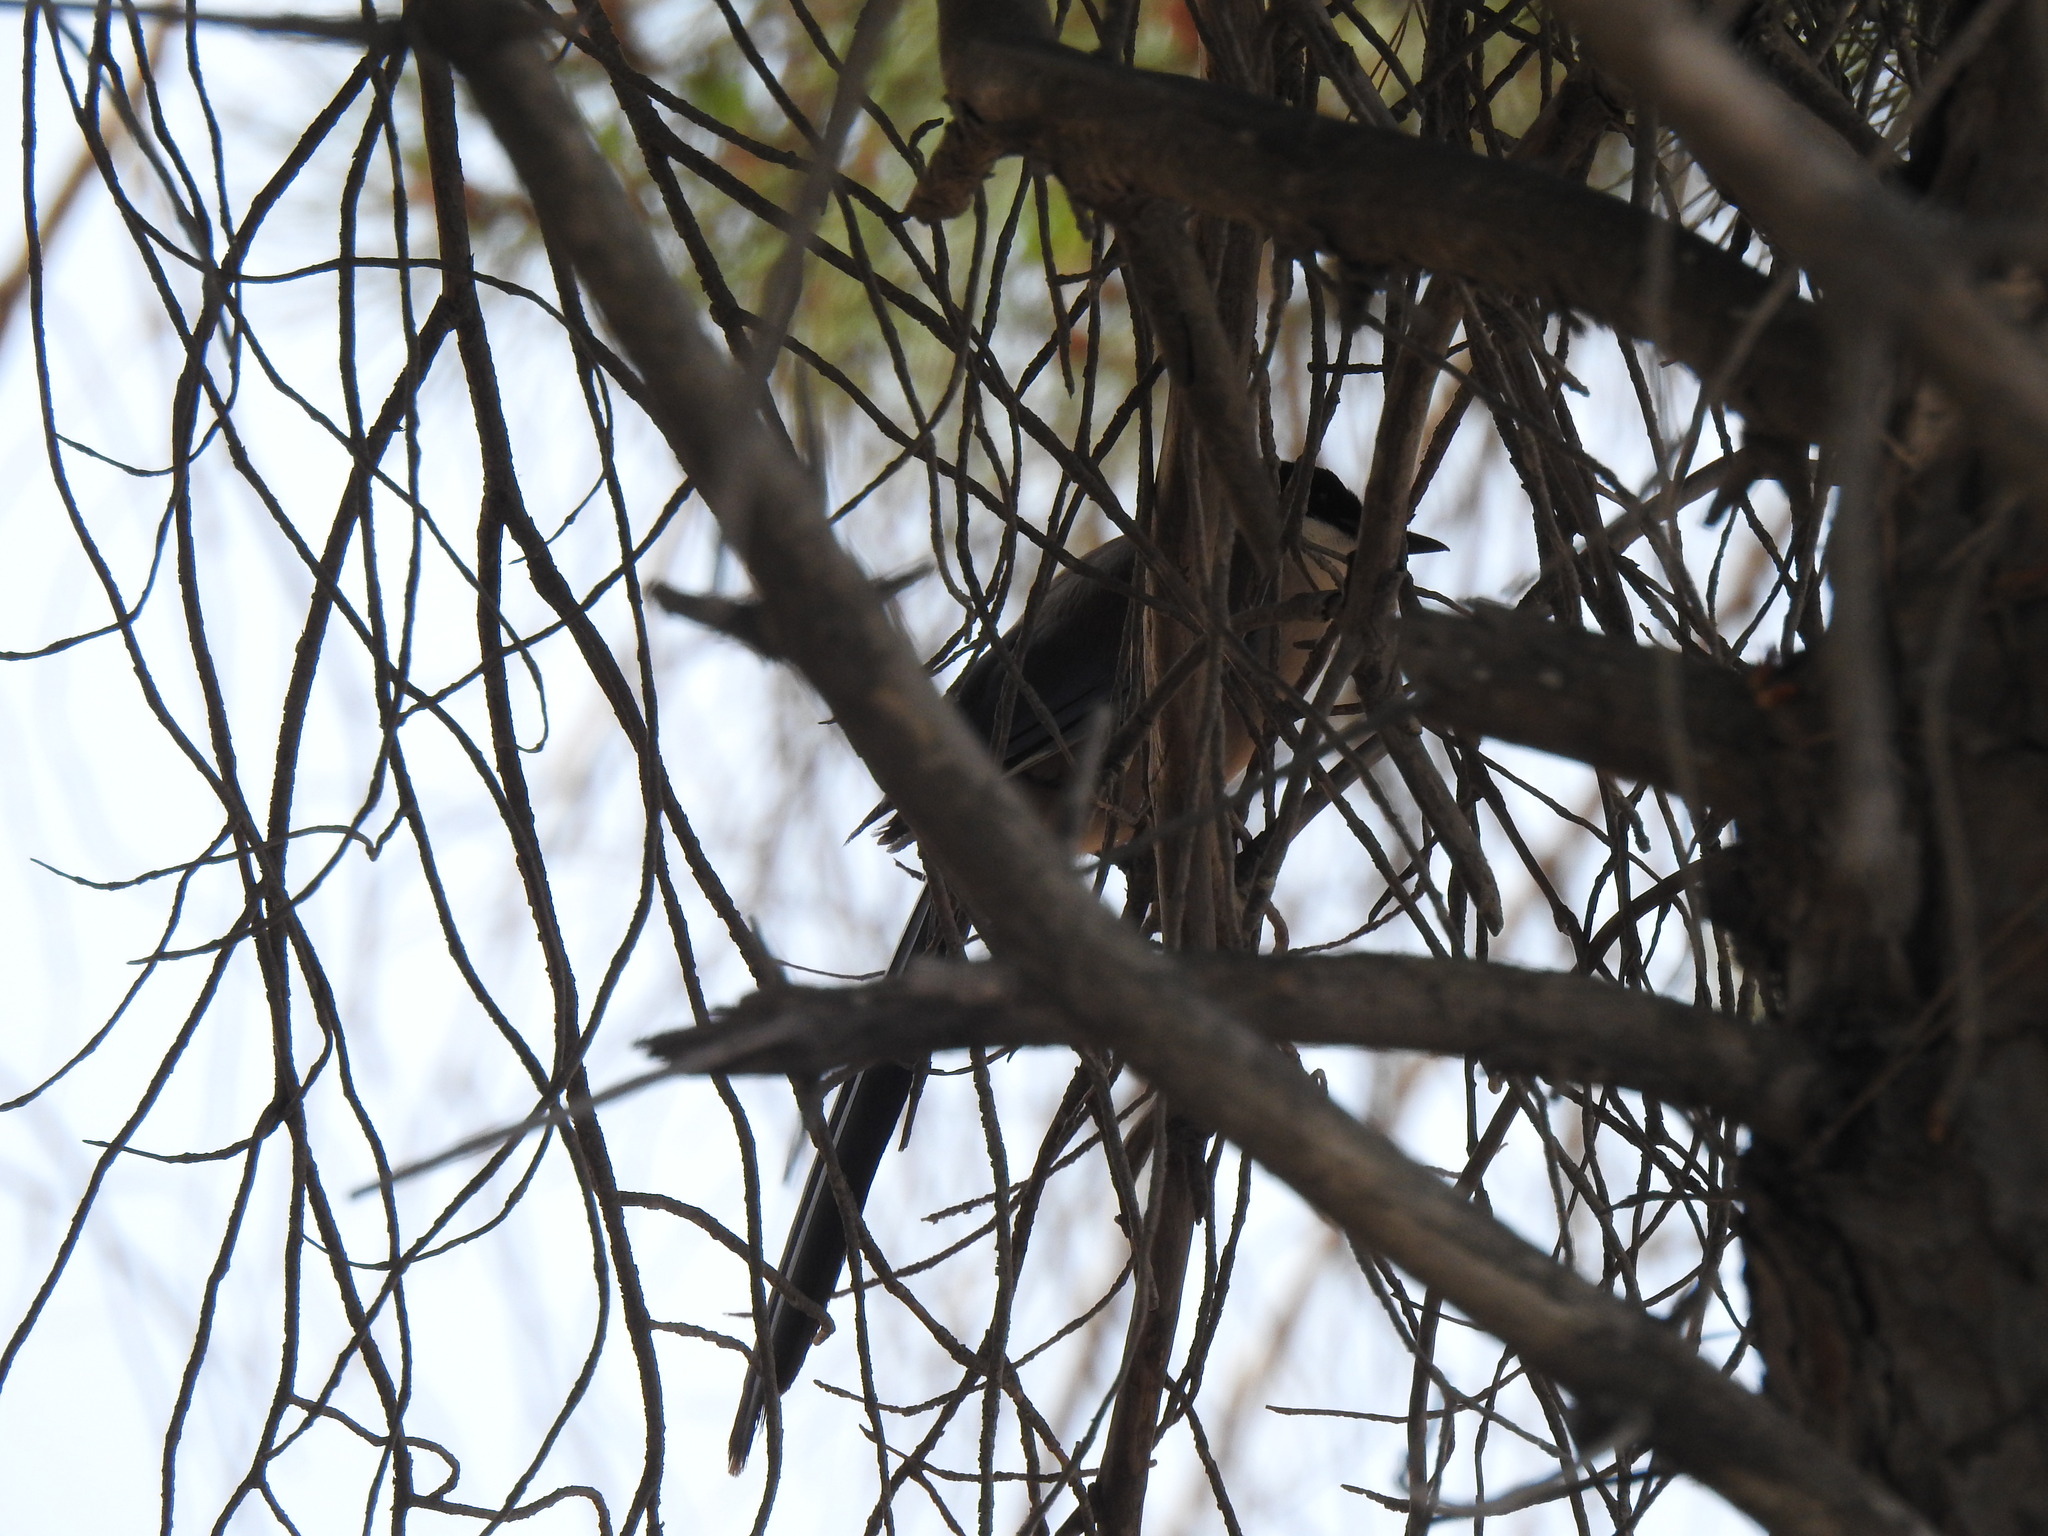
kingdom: Animalia
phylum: Chordata
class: Aves
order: Passeriformes
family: Corvidae
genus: Cyanopica
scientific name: Cyanopica cooki
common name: Iberian magpie
